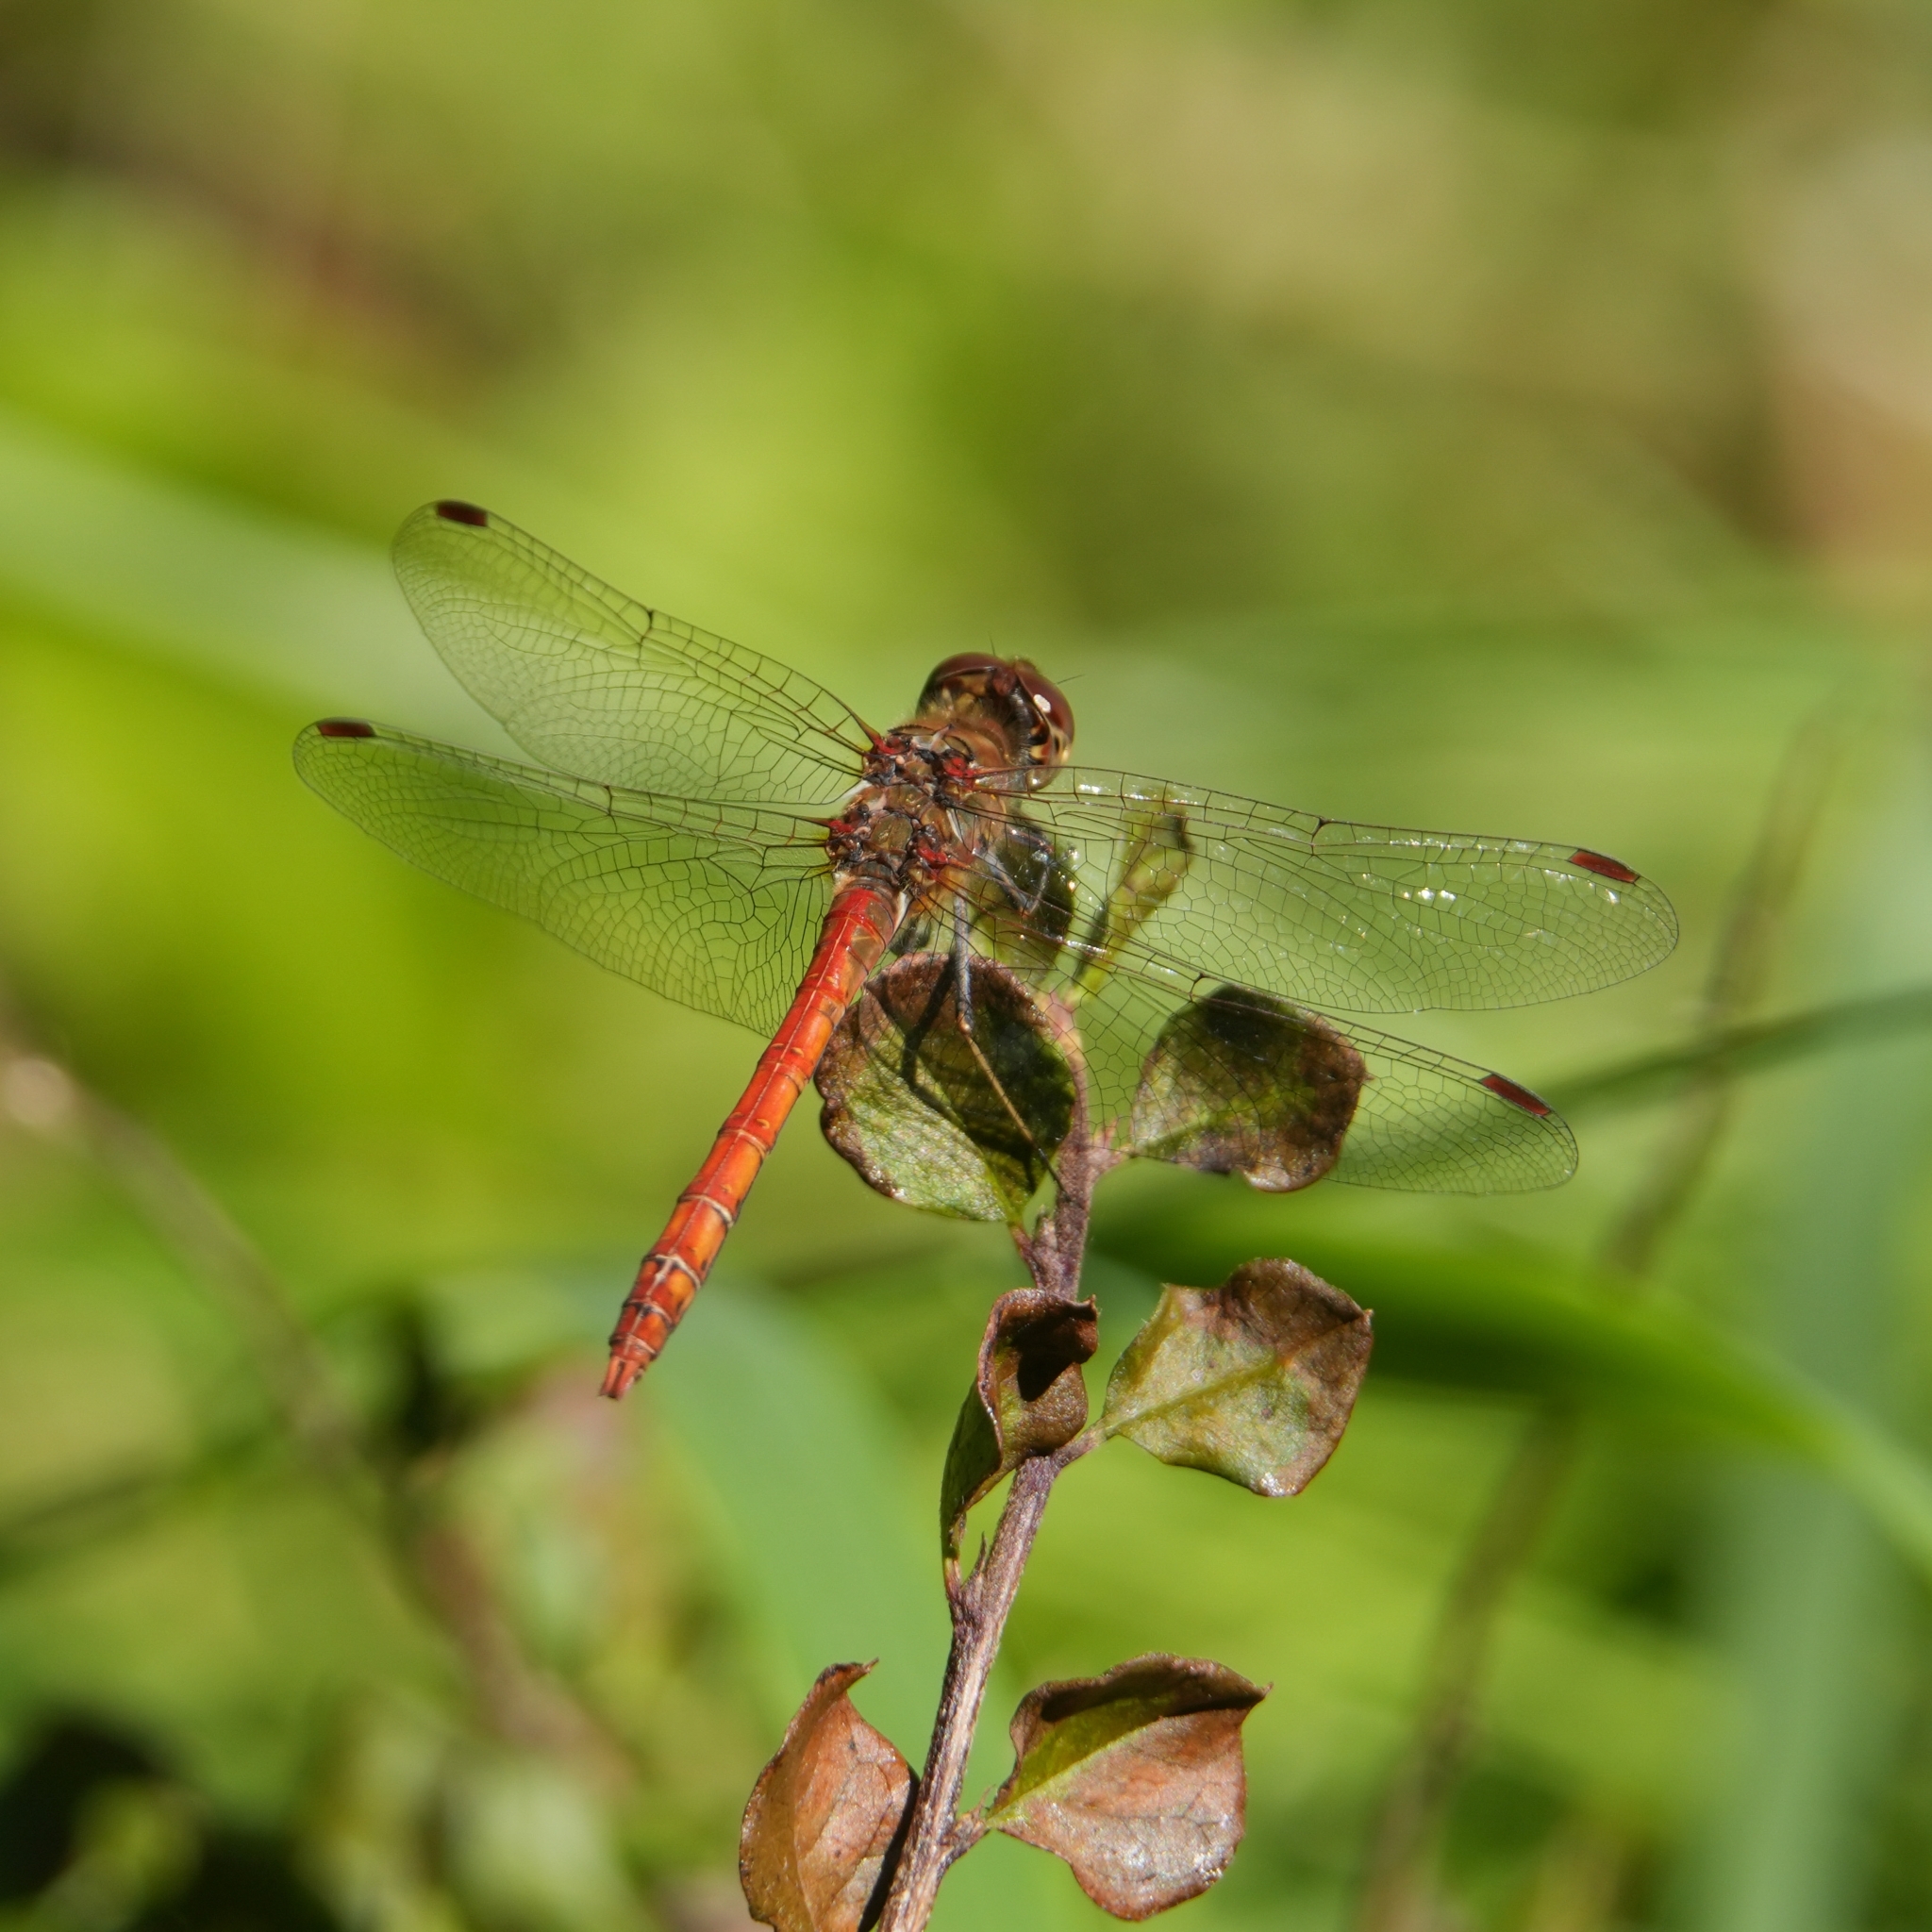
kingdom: Animalia
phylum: Arthropoda
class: Insecta
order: Odonata
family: Libellulidae
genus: Sympetrum
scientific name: Sympetrum striolatum
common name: Common darter
